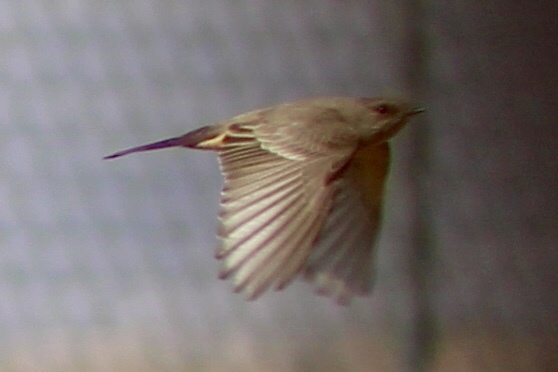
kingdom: Animalia
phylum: Chordata
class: Aves
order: Passeriformes
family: Tyrannidae
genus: Sayornis
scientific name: Sayornis saya
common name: Say's phoebe
